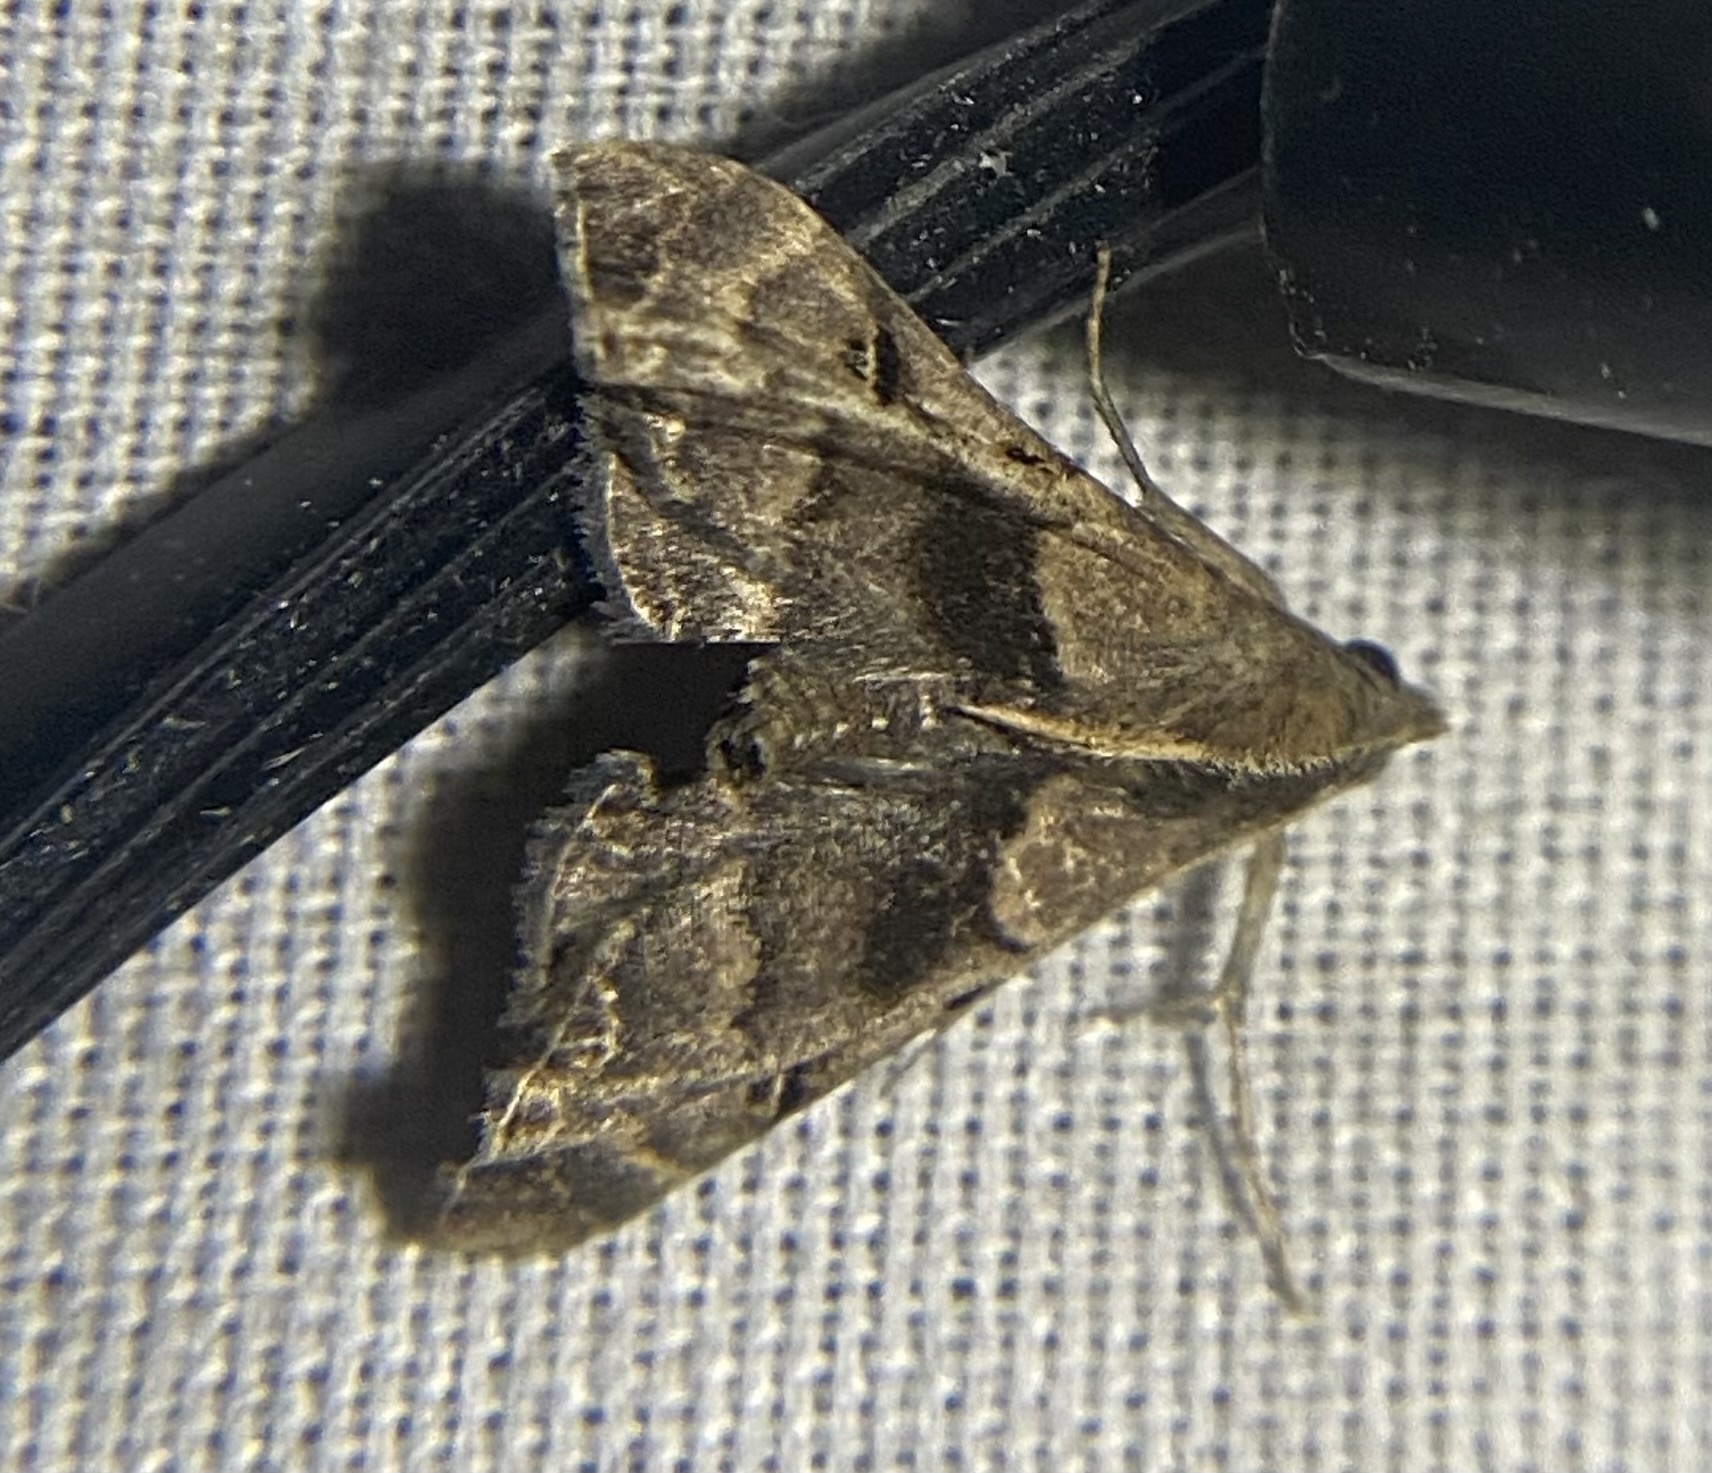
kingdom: Animalia
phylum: Arthropoda
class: Insecta
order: Lepidoptera
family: Erebidae
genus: Palthis
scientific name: Palthis asopialis
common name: Faint-spotted palthis moth
